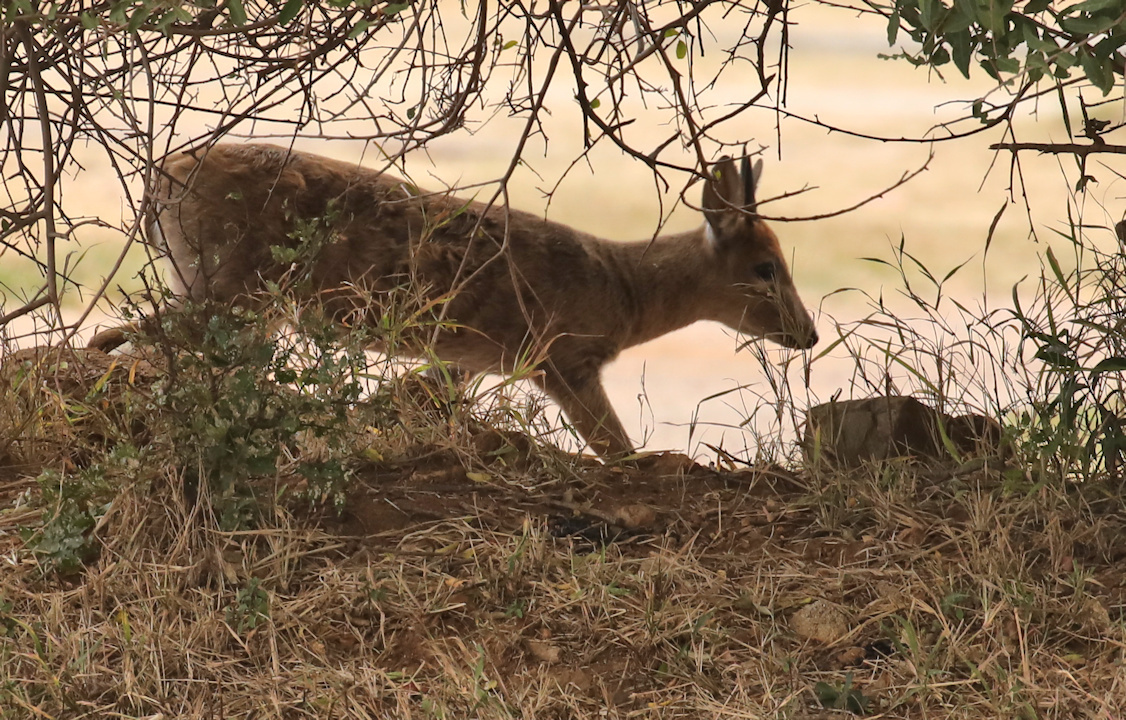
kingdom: Animalia
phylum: Chordata
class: Mammalia
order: Artiodactyla
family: Bovidae
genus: Sylvicapra
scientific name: Sylvicapra grimmia
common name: Bush duiker
